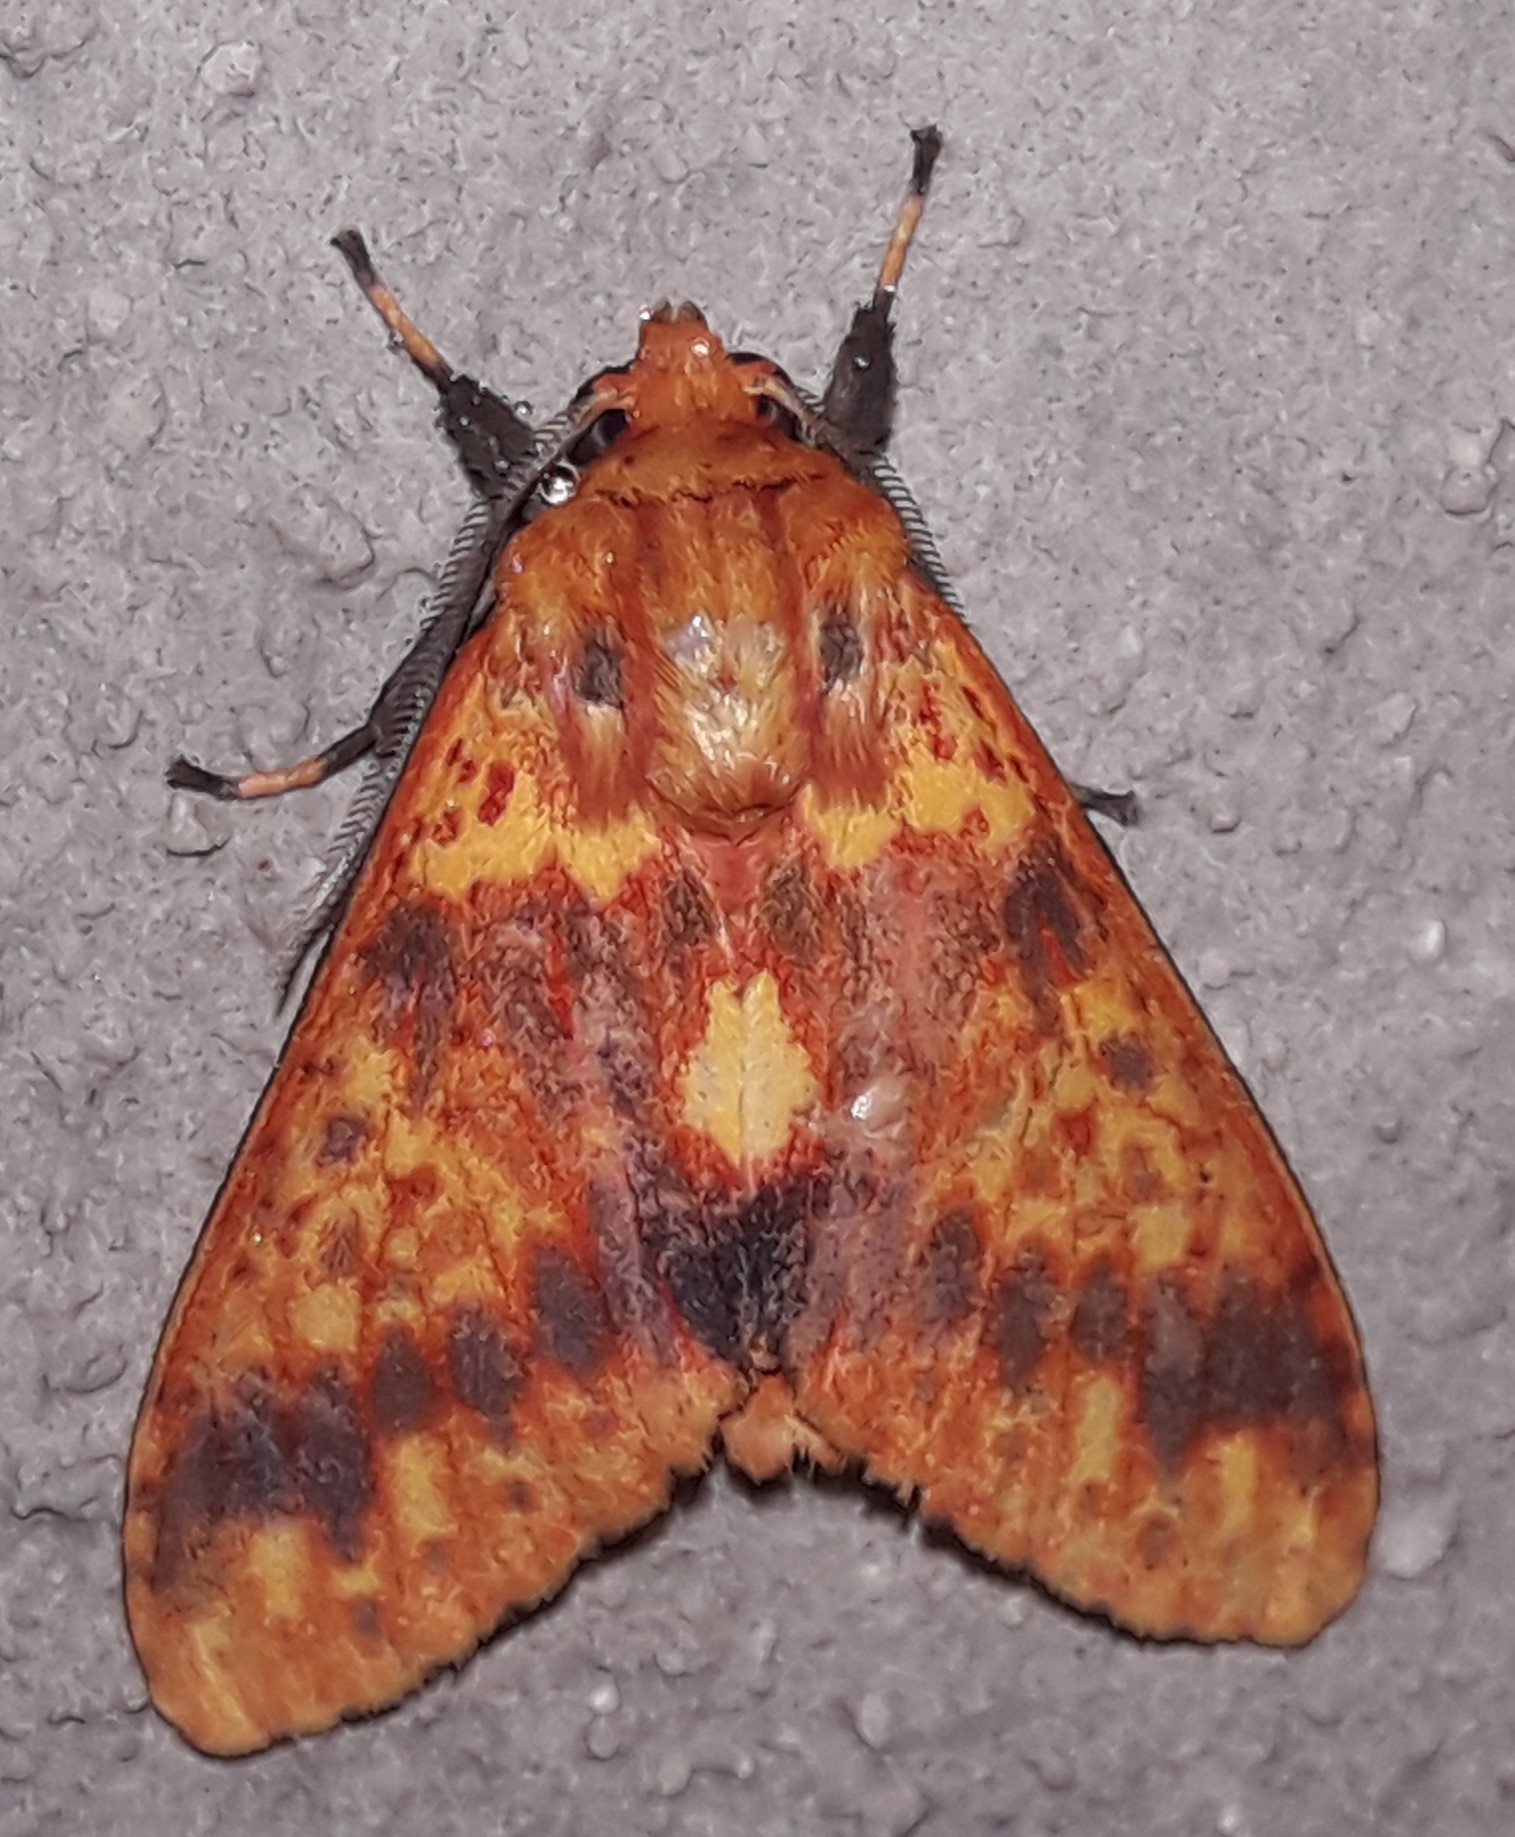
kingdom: Animalia
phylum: Arthropoda
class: Insecta
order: Lepidoptera
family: Erebidae
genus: Symphlebia
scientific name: Symphlebia perflua
